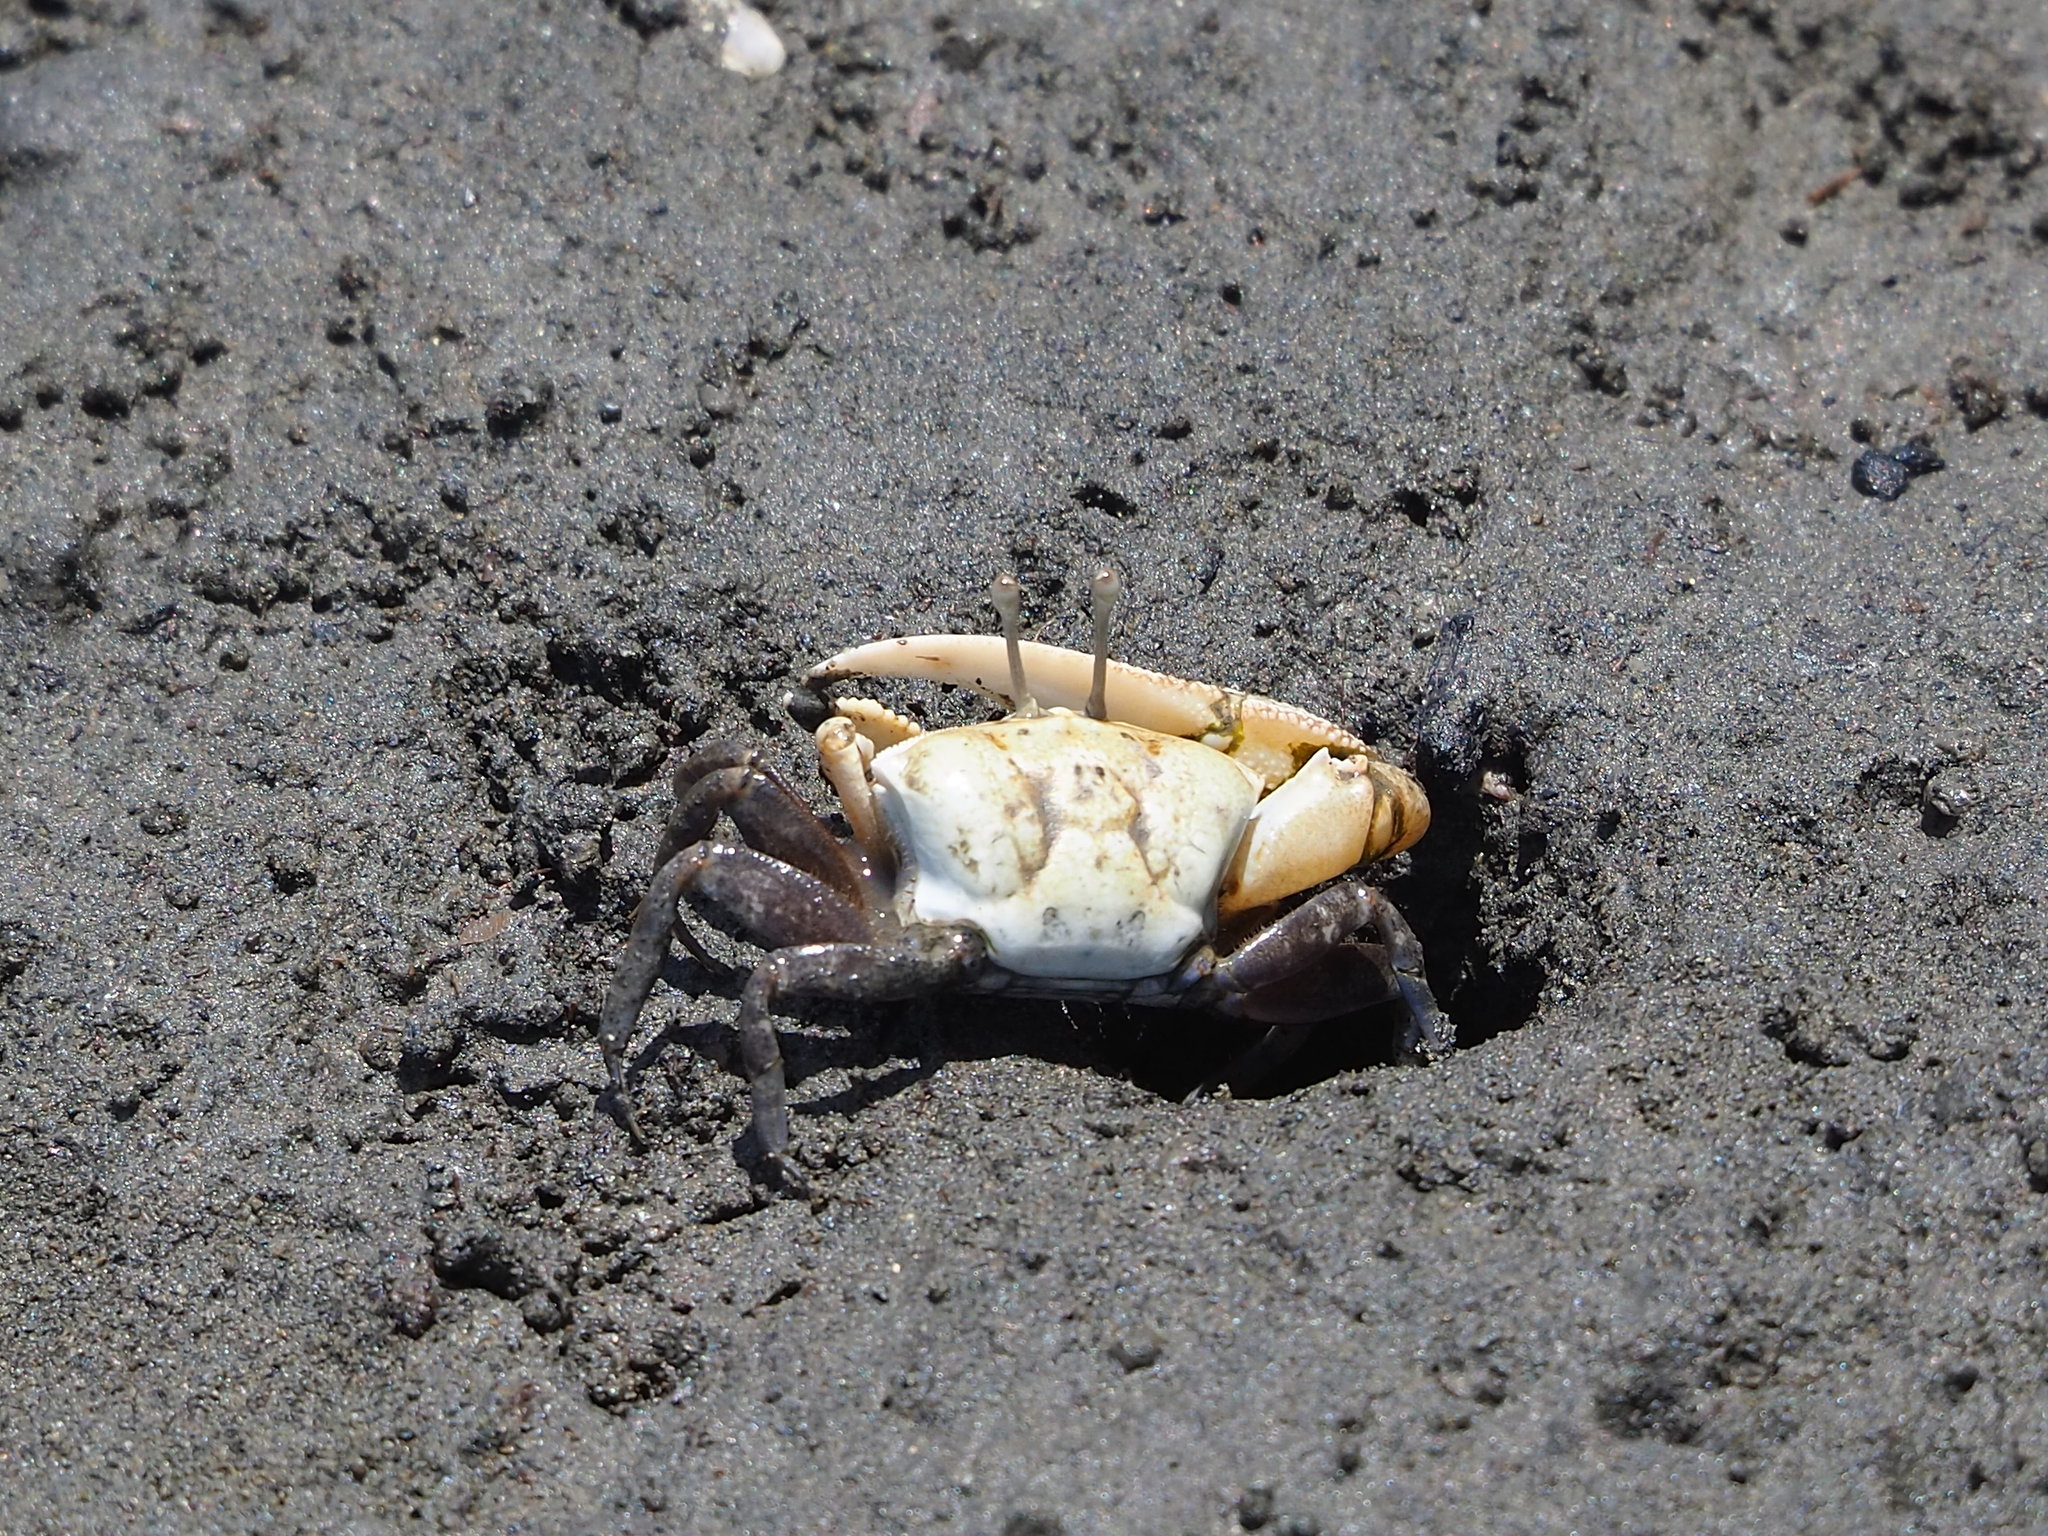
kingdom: Animalia
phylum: Arthropoda
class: Malacostraca
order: Decapoda
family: Ocypodidae
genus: Gelasimus
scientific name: Gelasimus borealis
